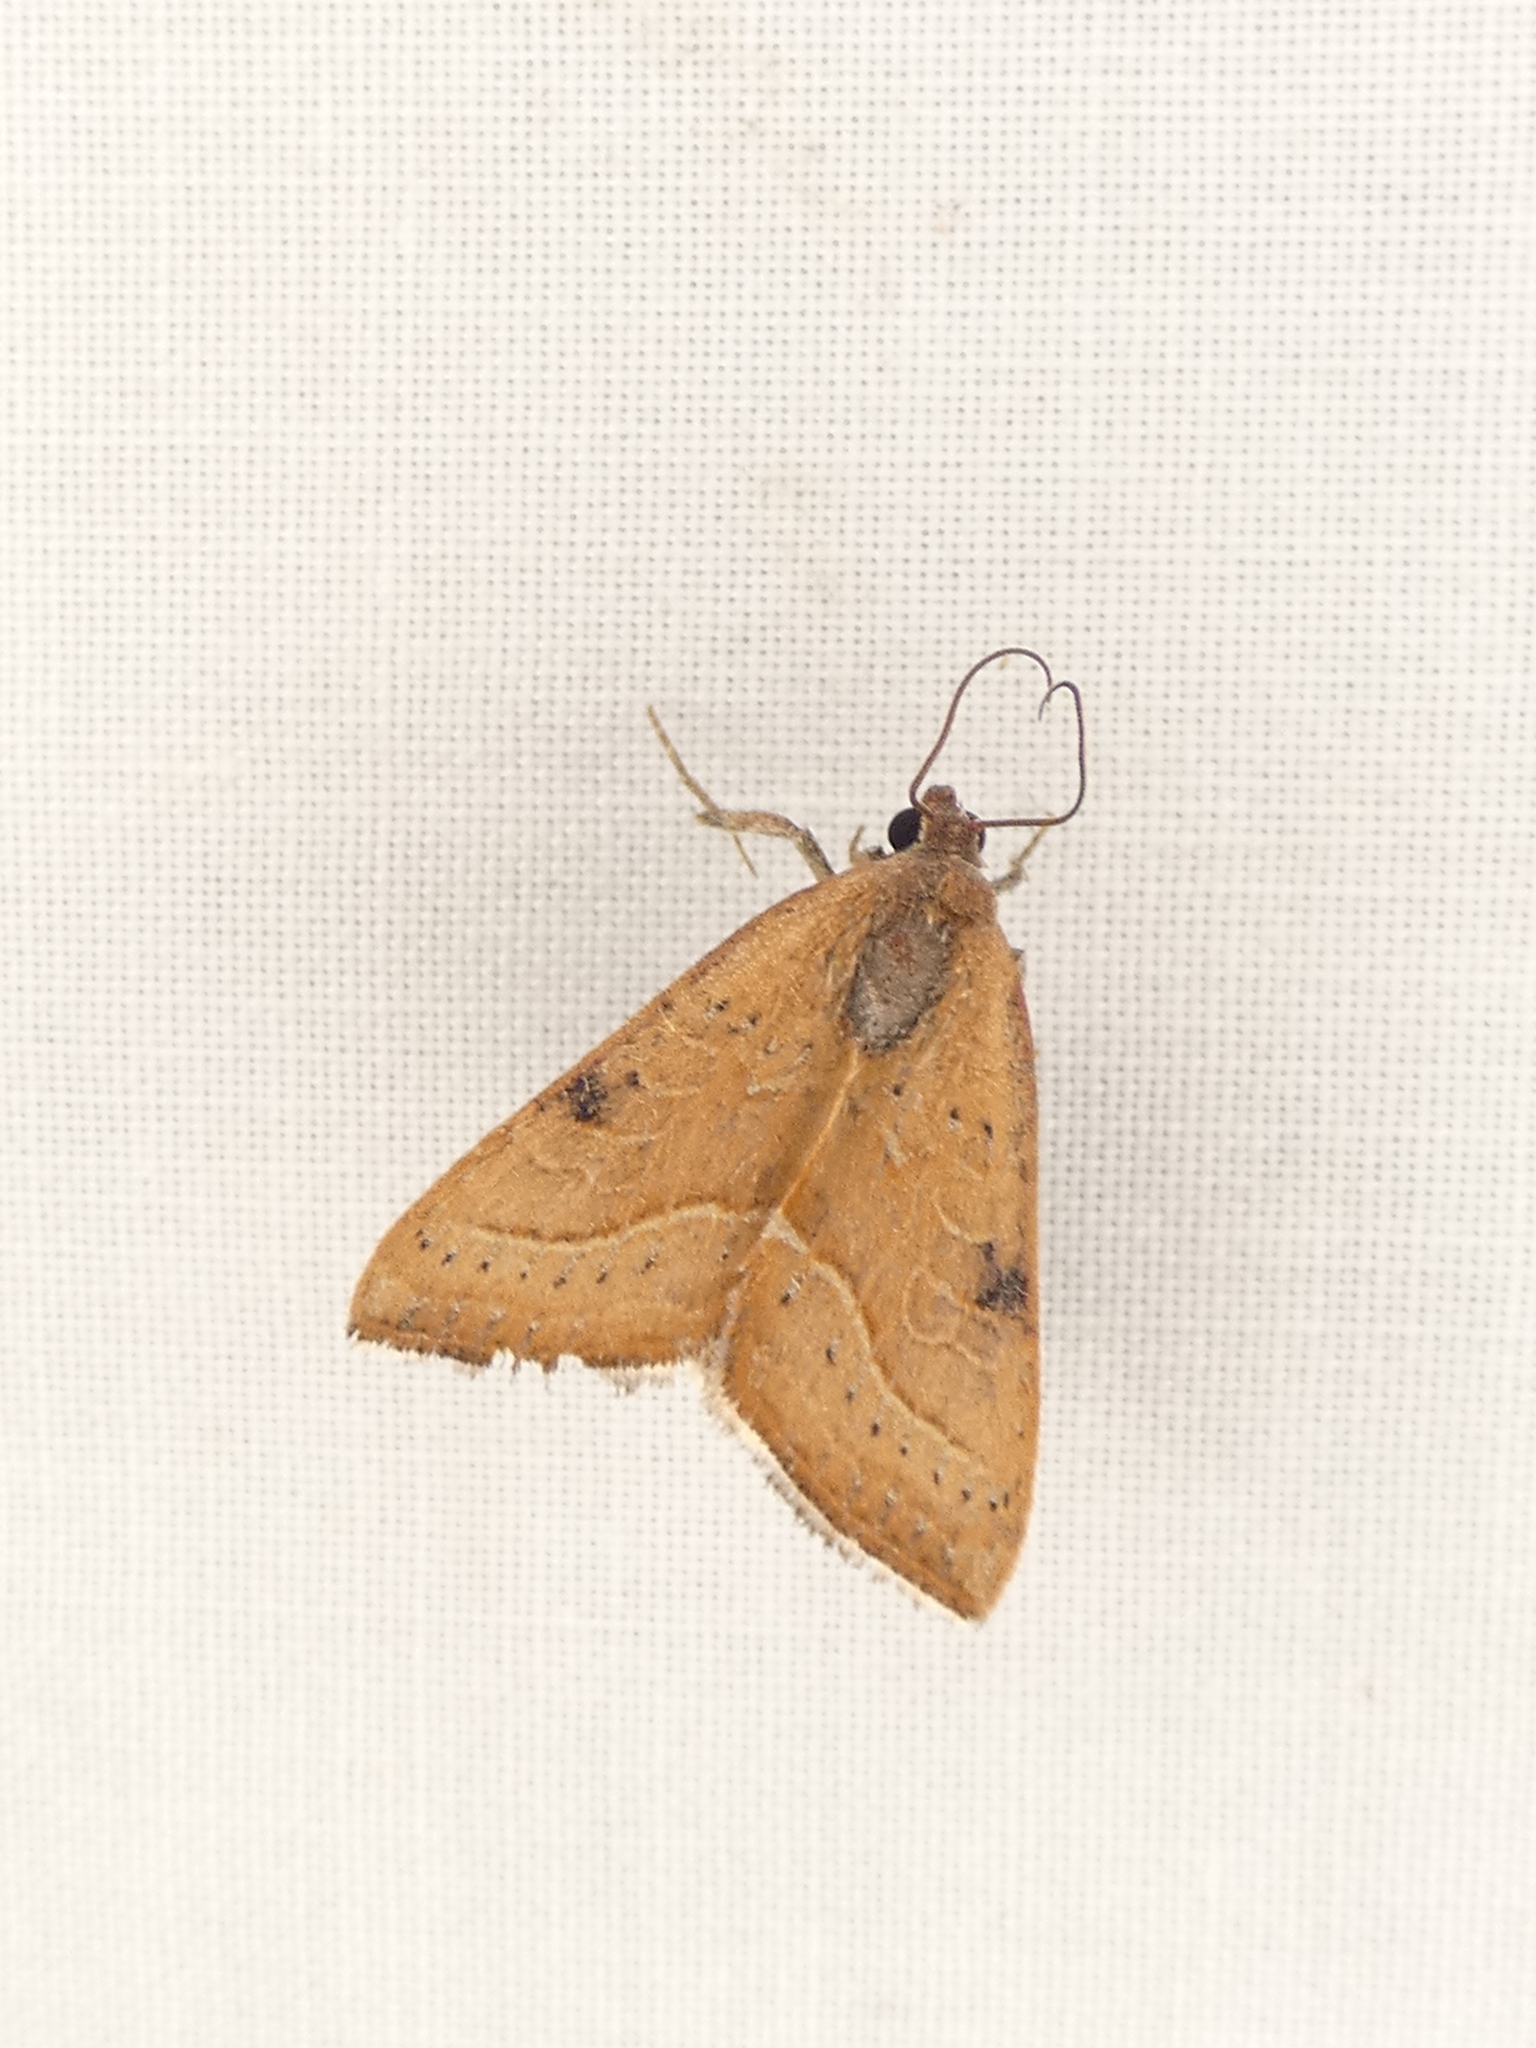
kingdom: Animalia
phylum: Arthropoda
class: Insecta
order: Lepidoptera
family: Noctuidae
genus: Galgula
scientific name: Galgula partita
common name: Wedgeling
